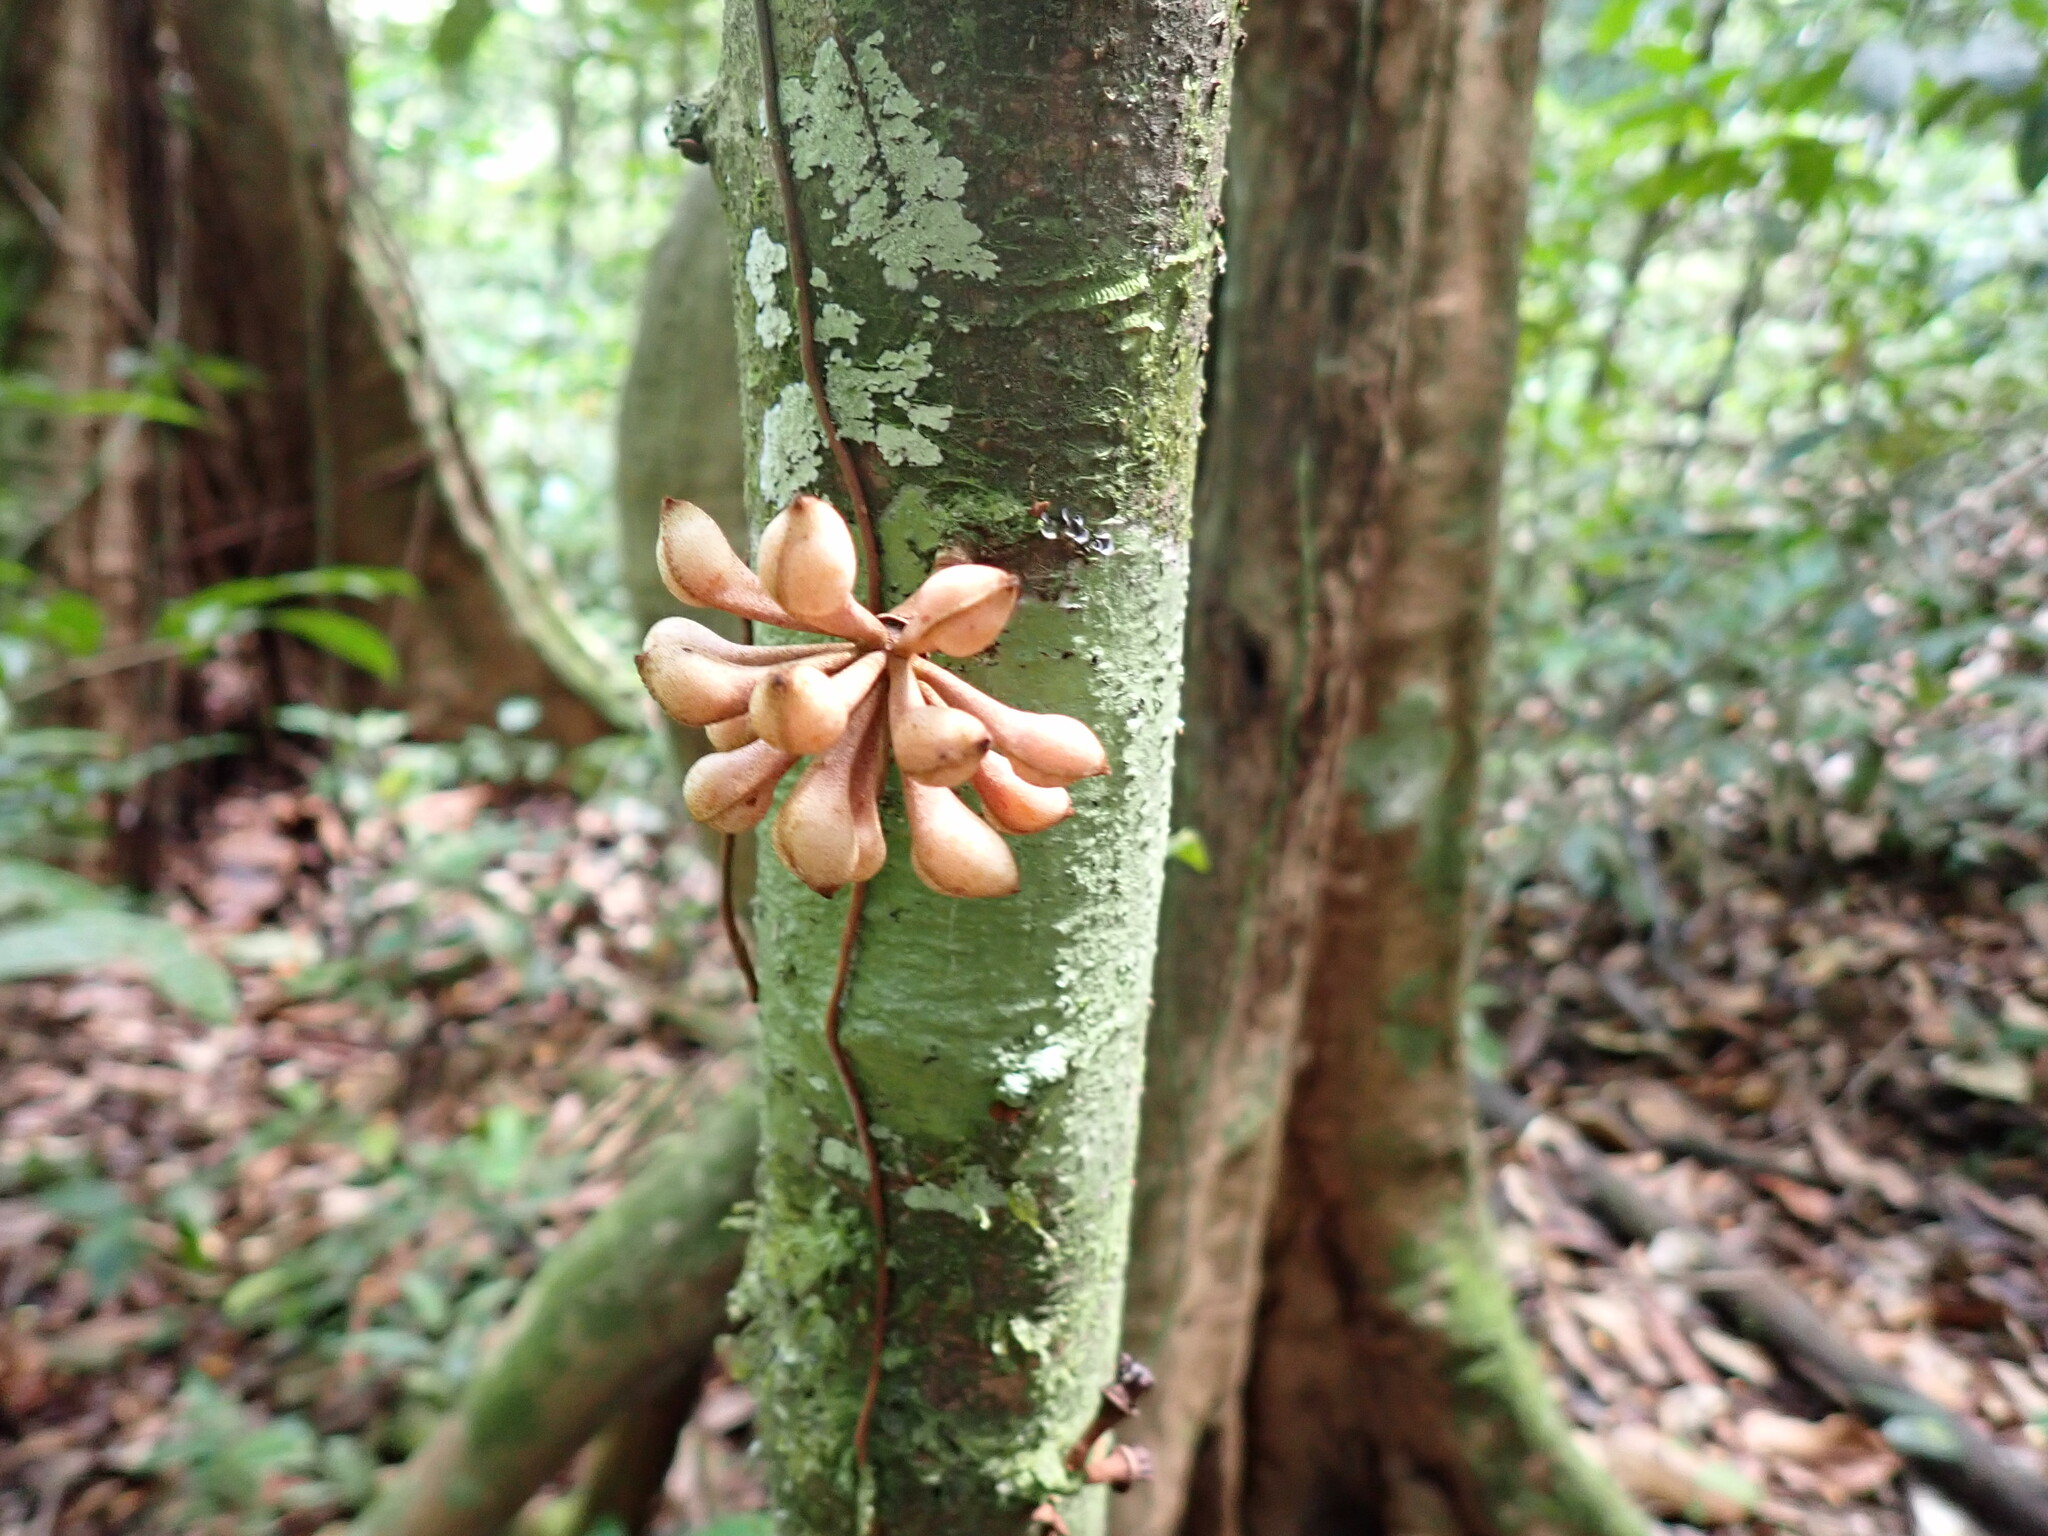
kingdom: Plantae
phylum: Tracheophyta
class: Magnoliopsida
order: Magnoliales
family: Annonaceae
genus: Anaxagorea
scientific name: Anaxagorea dolichocarpa
